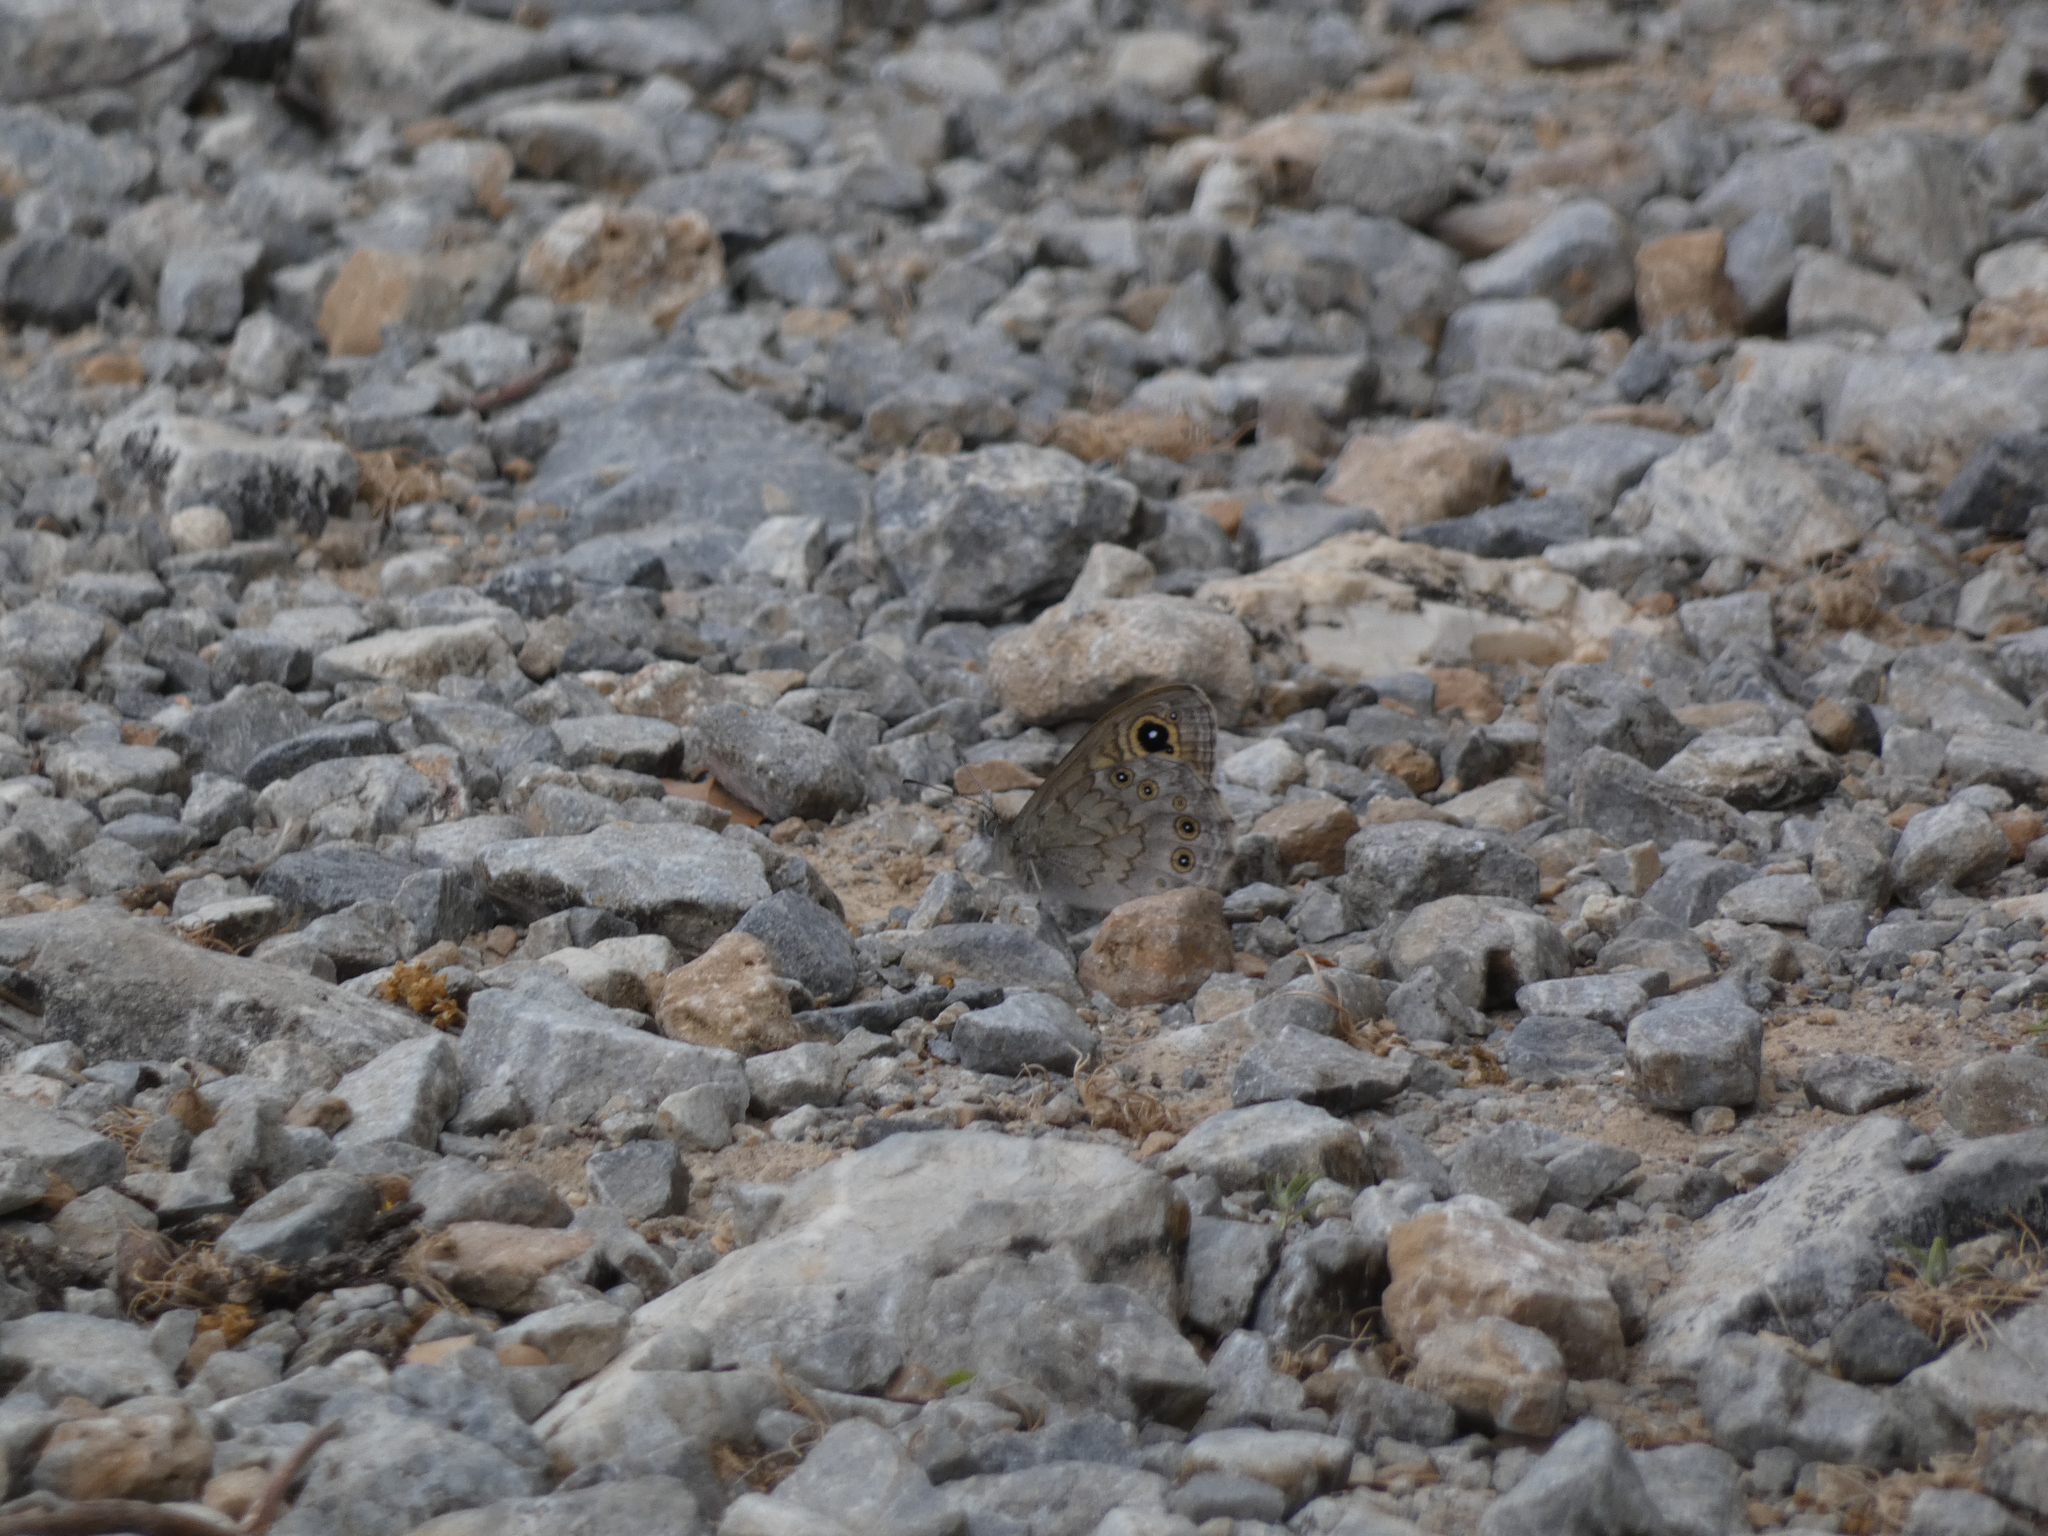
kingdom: Animalia
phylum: Arthropoda
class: Insecta
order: Lepidoptera
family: Nymphalidae
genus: Pararge
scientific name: Pararge Lasiommata maera
